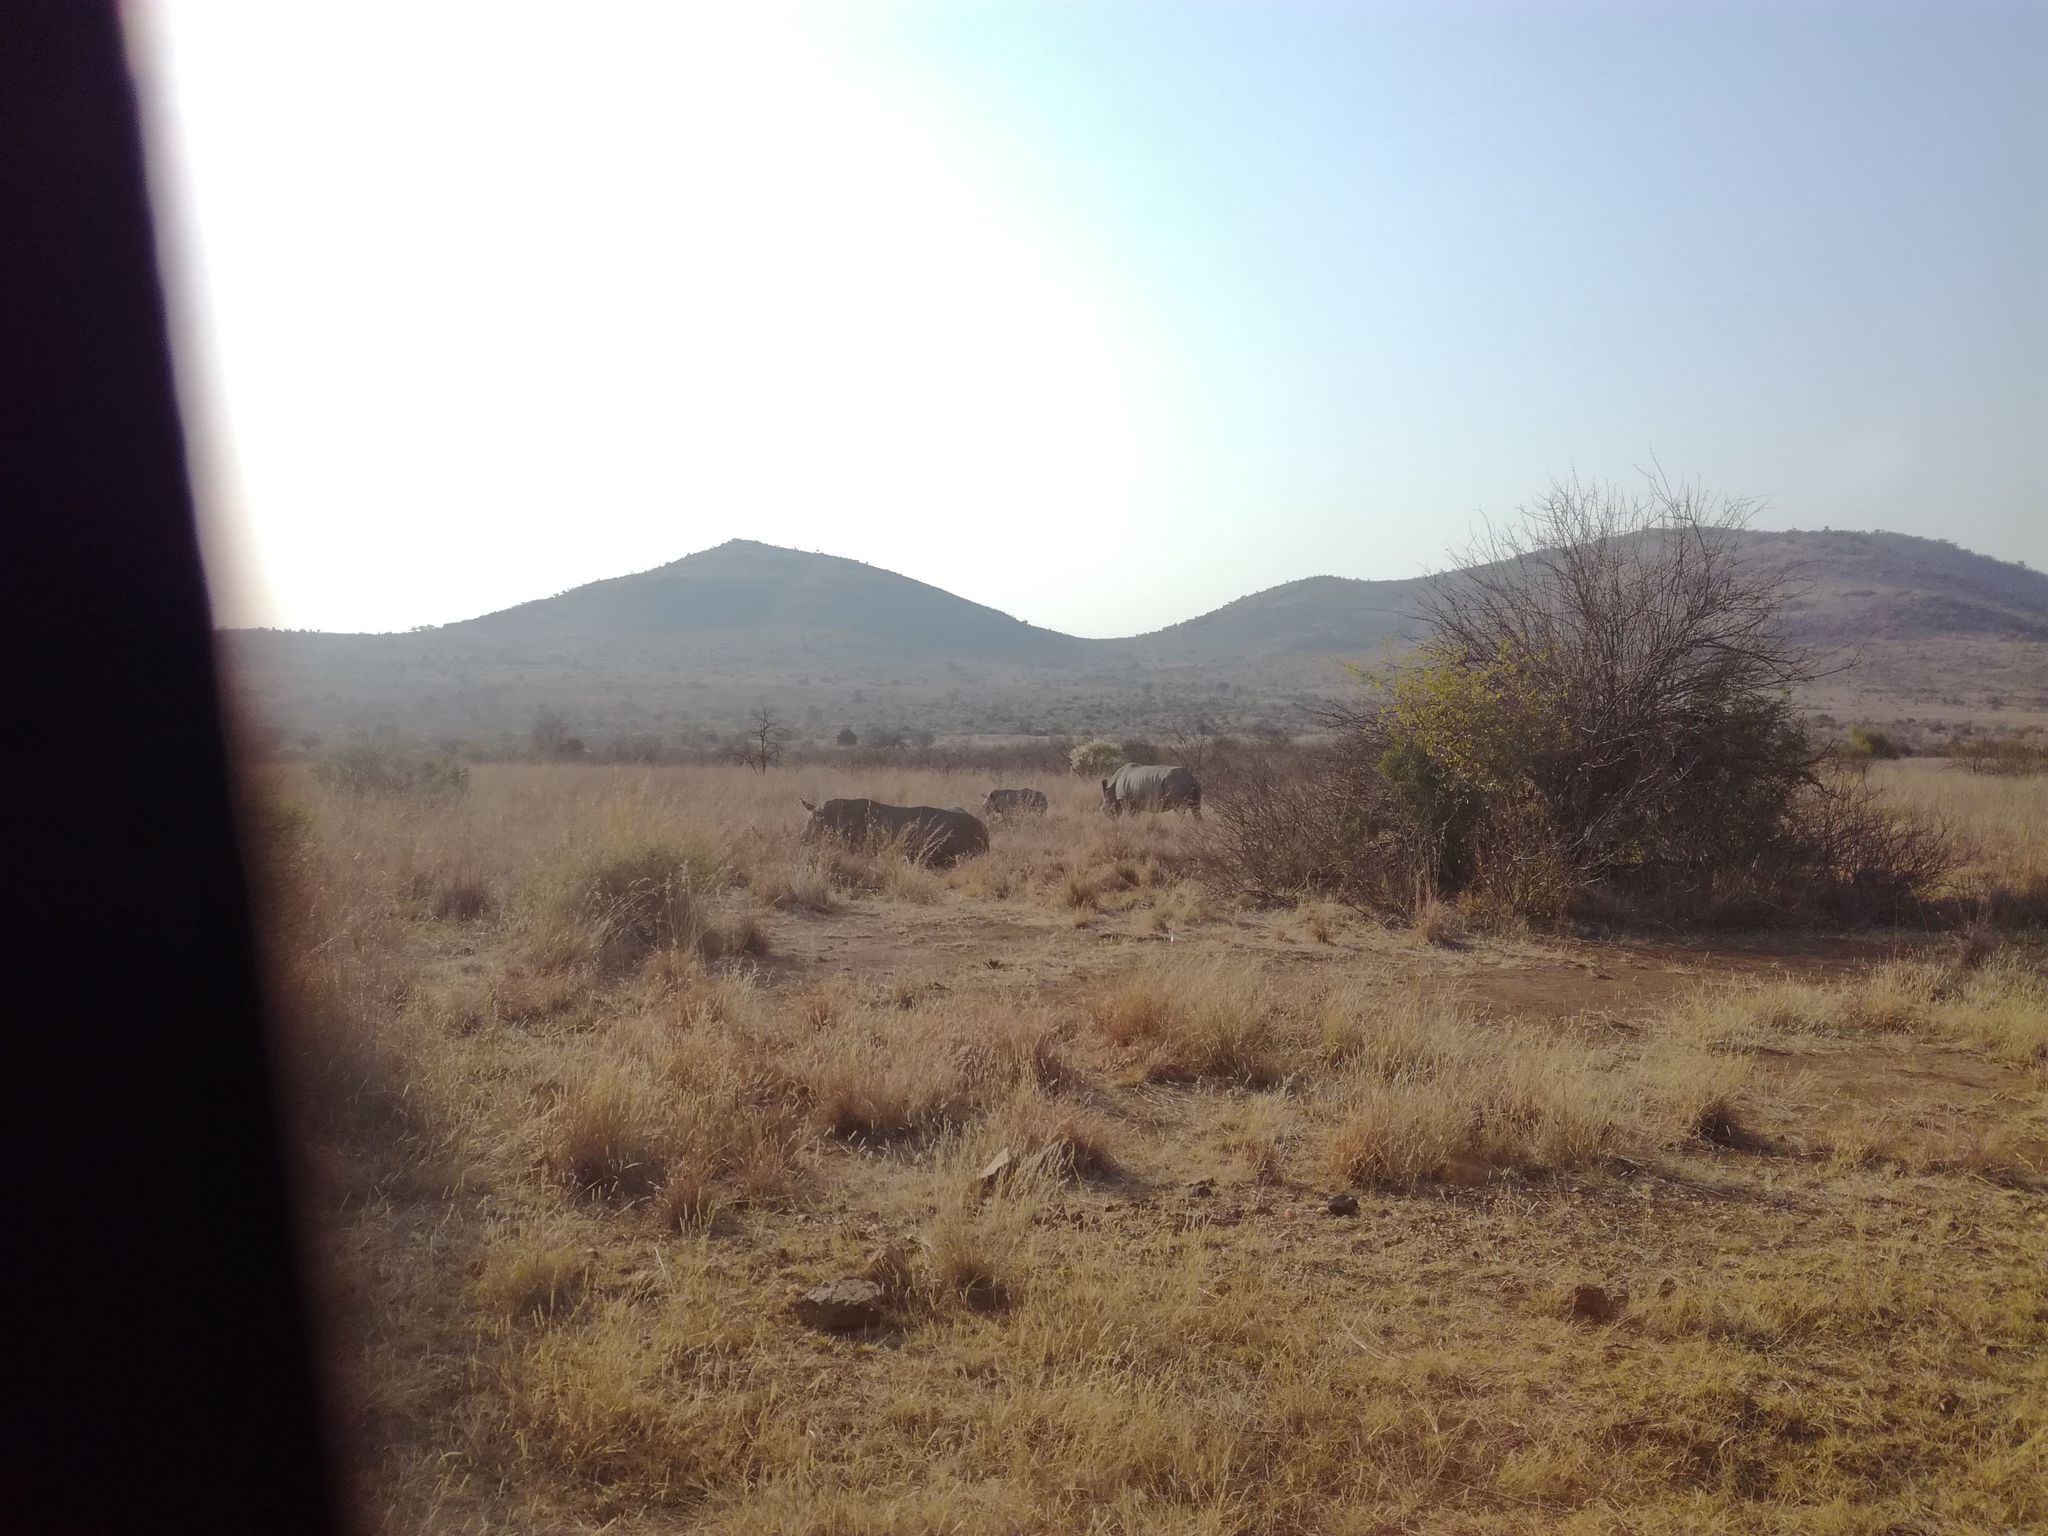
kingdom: Animalia
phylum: Chordata
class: Mammalia
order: Perissodactyla
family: Rhinocerotidae
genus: Ceratotherium
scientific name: Ceratotherium simum
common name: White rhinoceros
